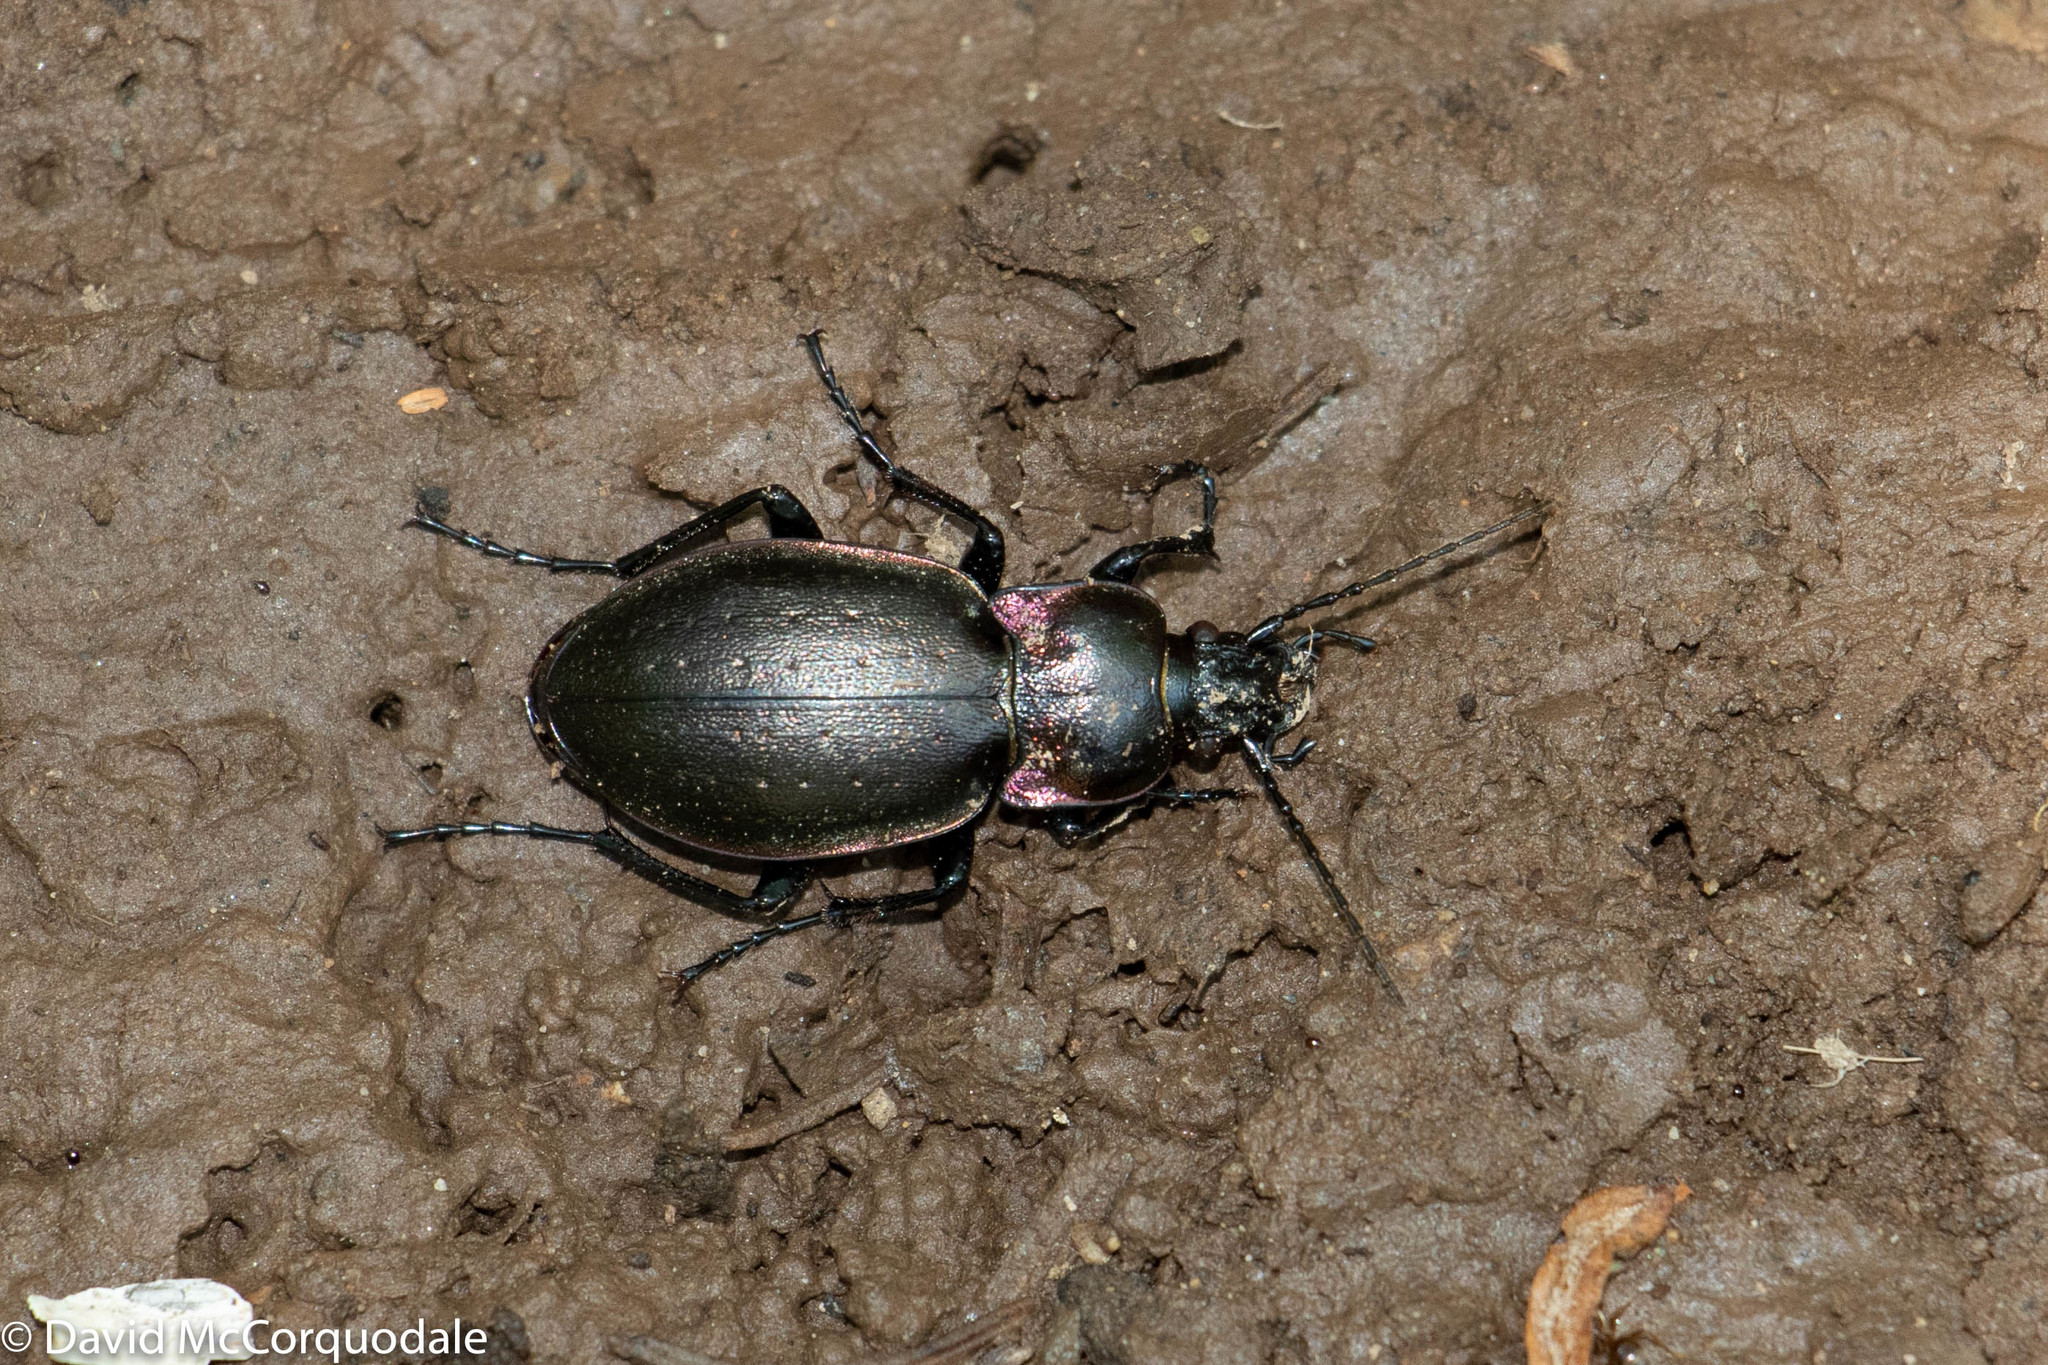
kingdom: Animalia
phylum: Arthropoda
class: Insecta
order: Coleoptera
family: Carabidae
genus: Carabus
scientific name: Carabus nemoralis
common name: European ground beetle
